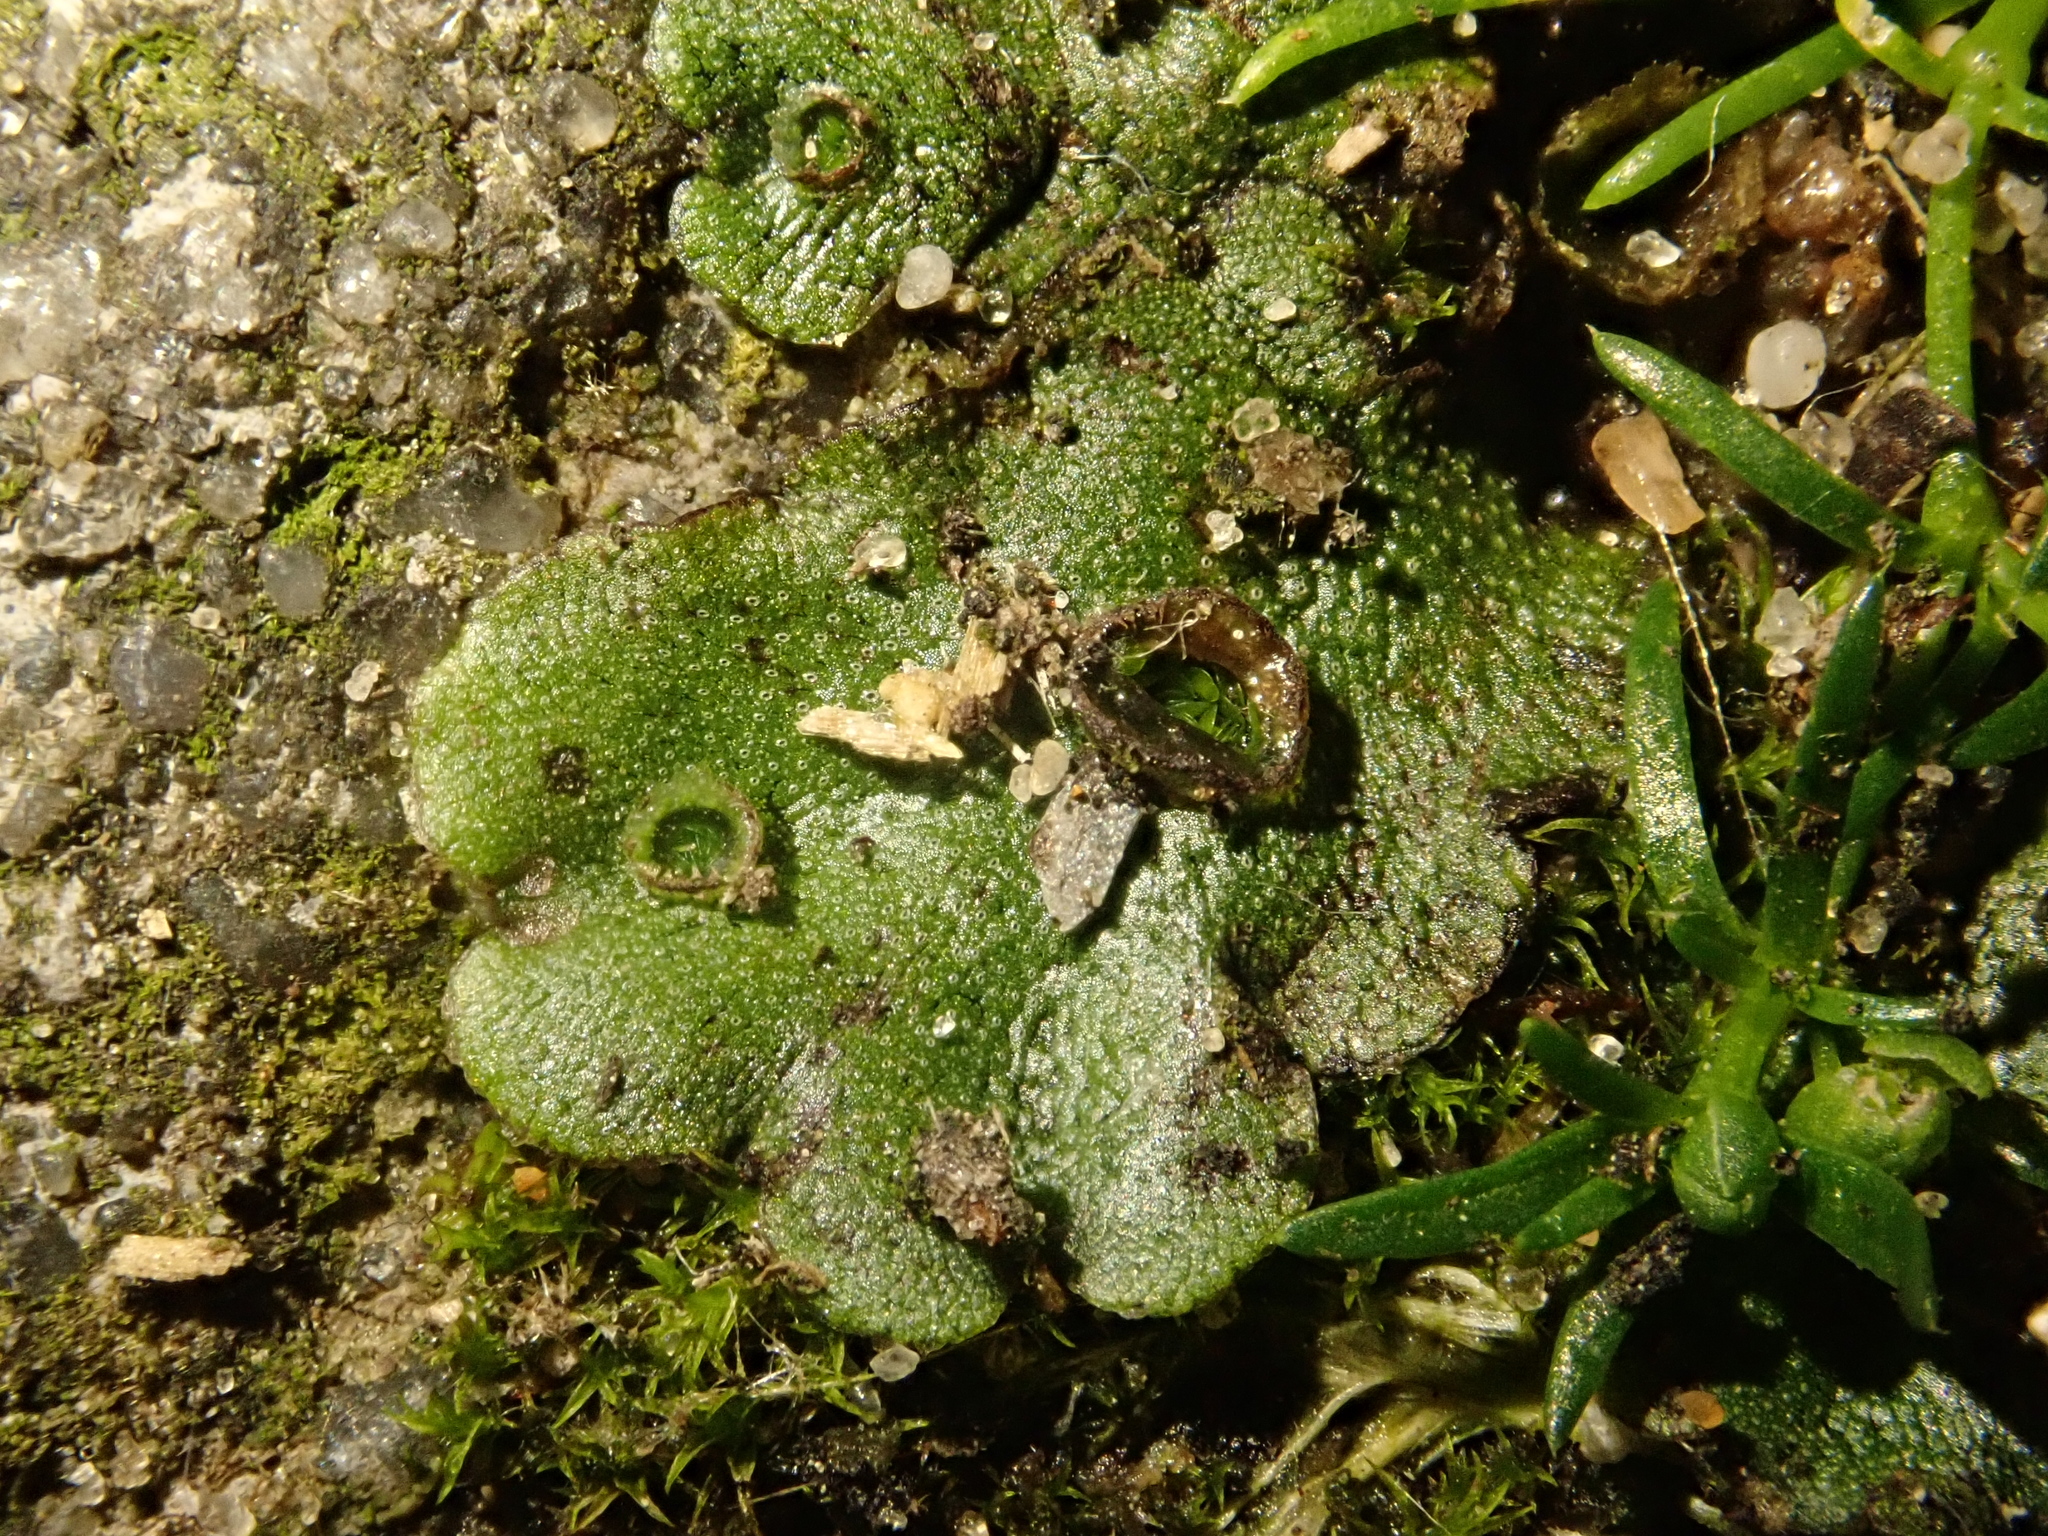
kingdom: Plantae
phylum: Marchantiophyta
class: Marchantiopsida
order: Marchantiales
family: Marchantiaceae
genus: Marchantia
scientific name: Marchantia polymorpha
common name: Common liverwort
